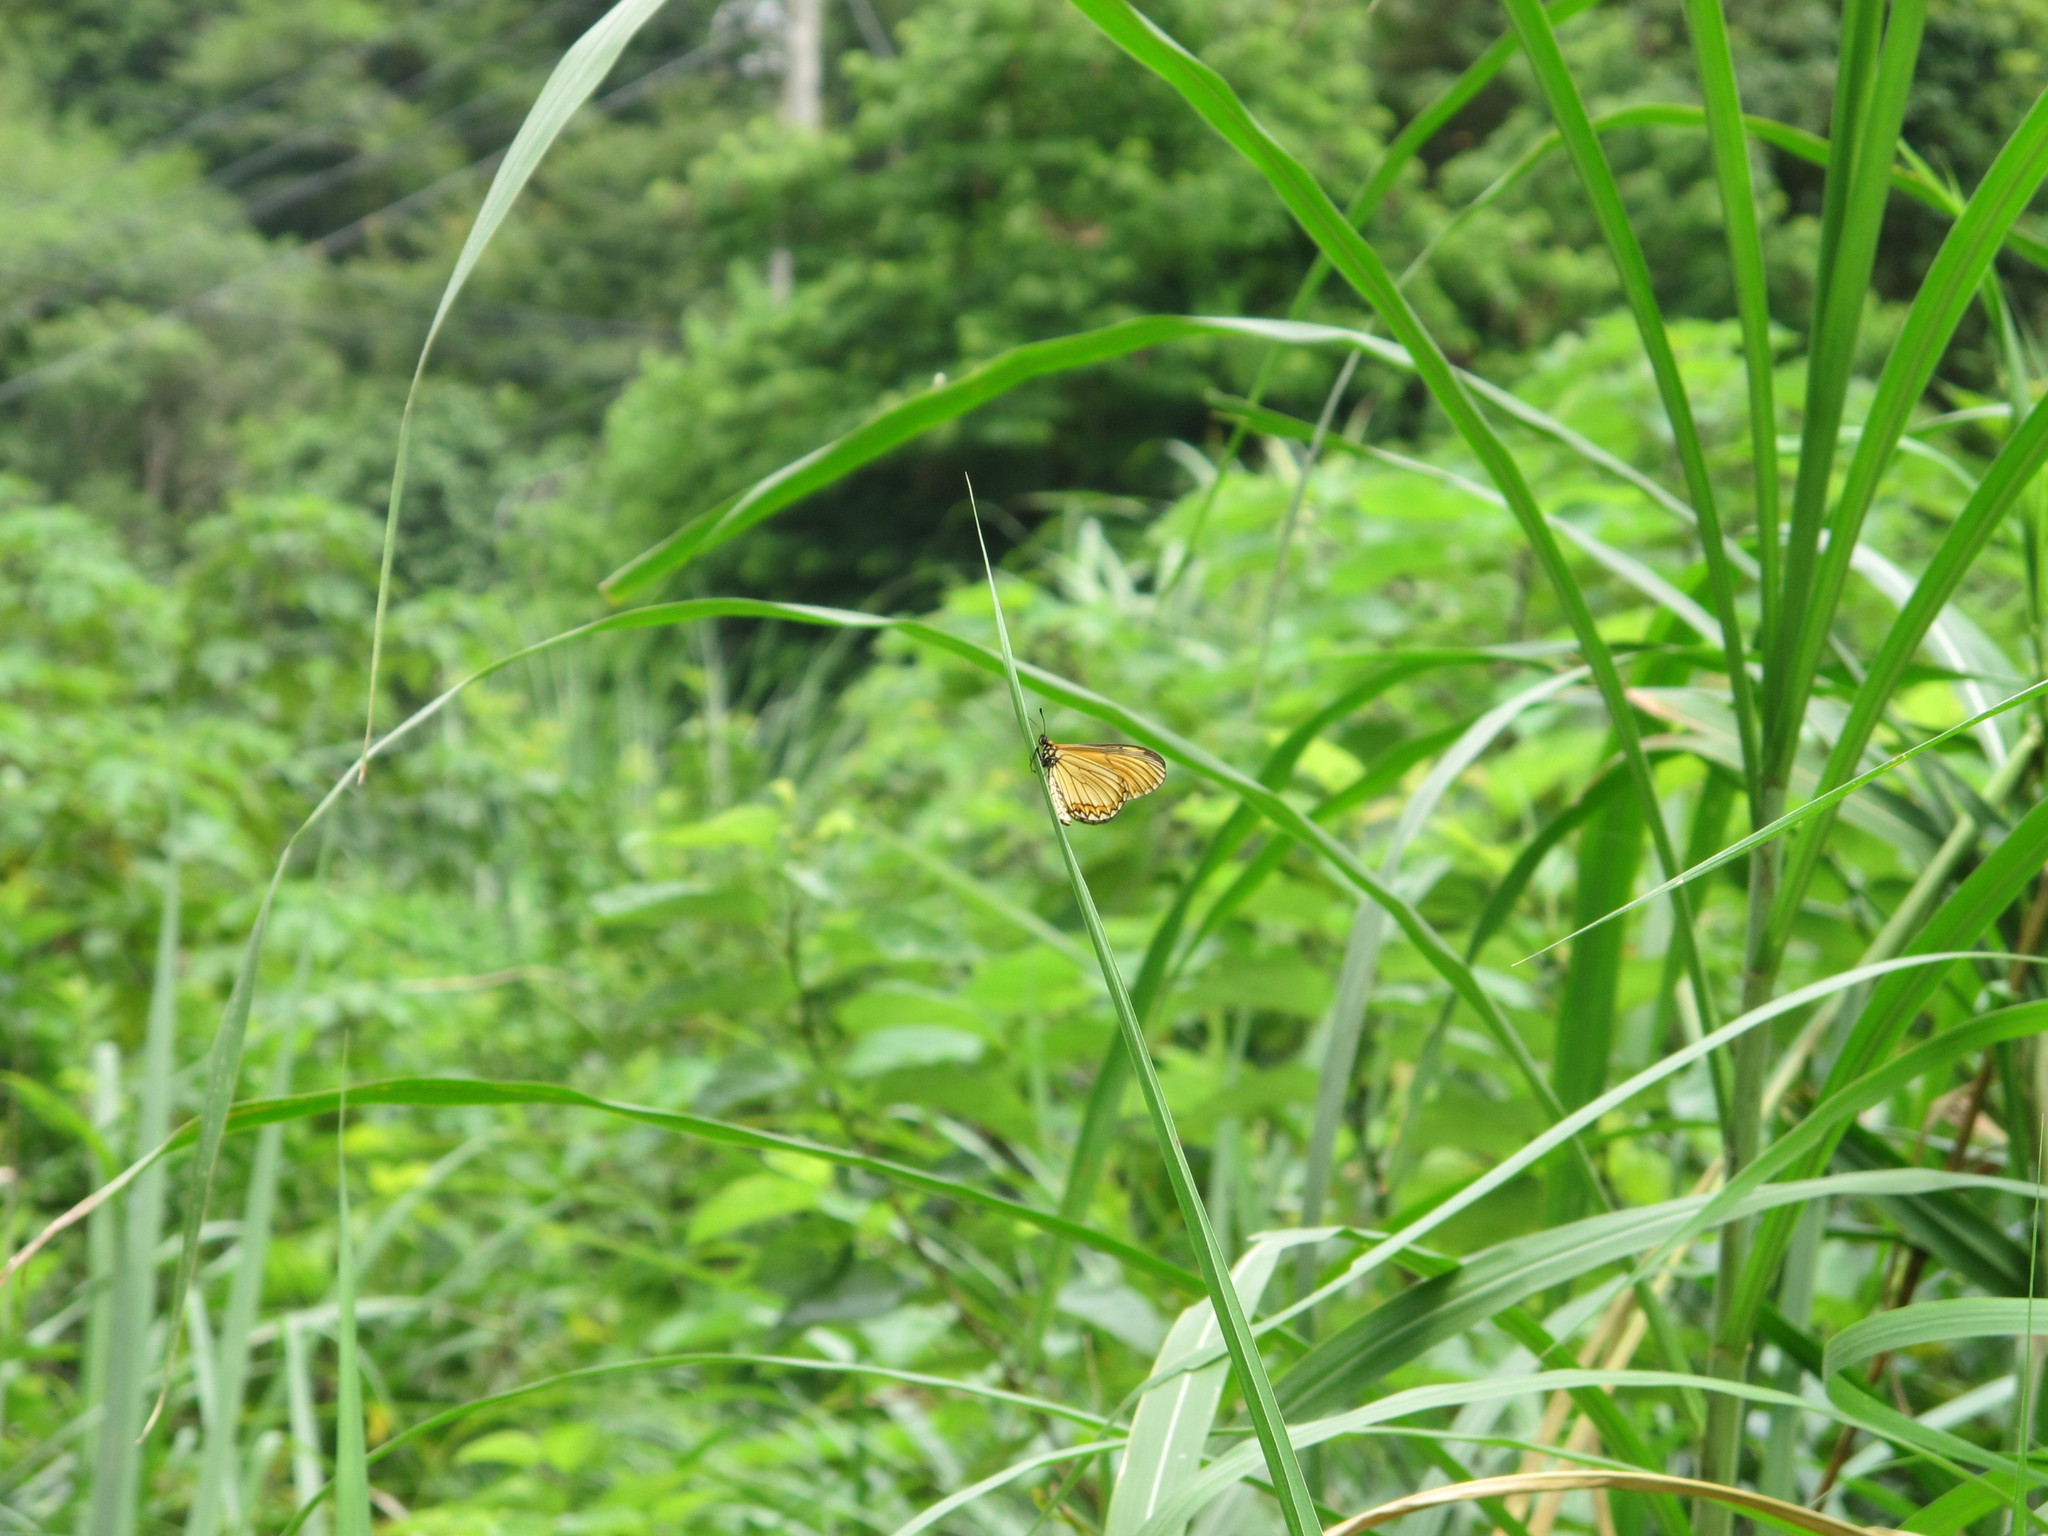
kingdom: Animalia
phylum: Arthropoda
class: Insecta
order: Lepidoptera
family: Nymphalidae
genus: Acraea
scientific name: Acraea Telchinia issoria
